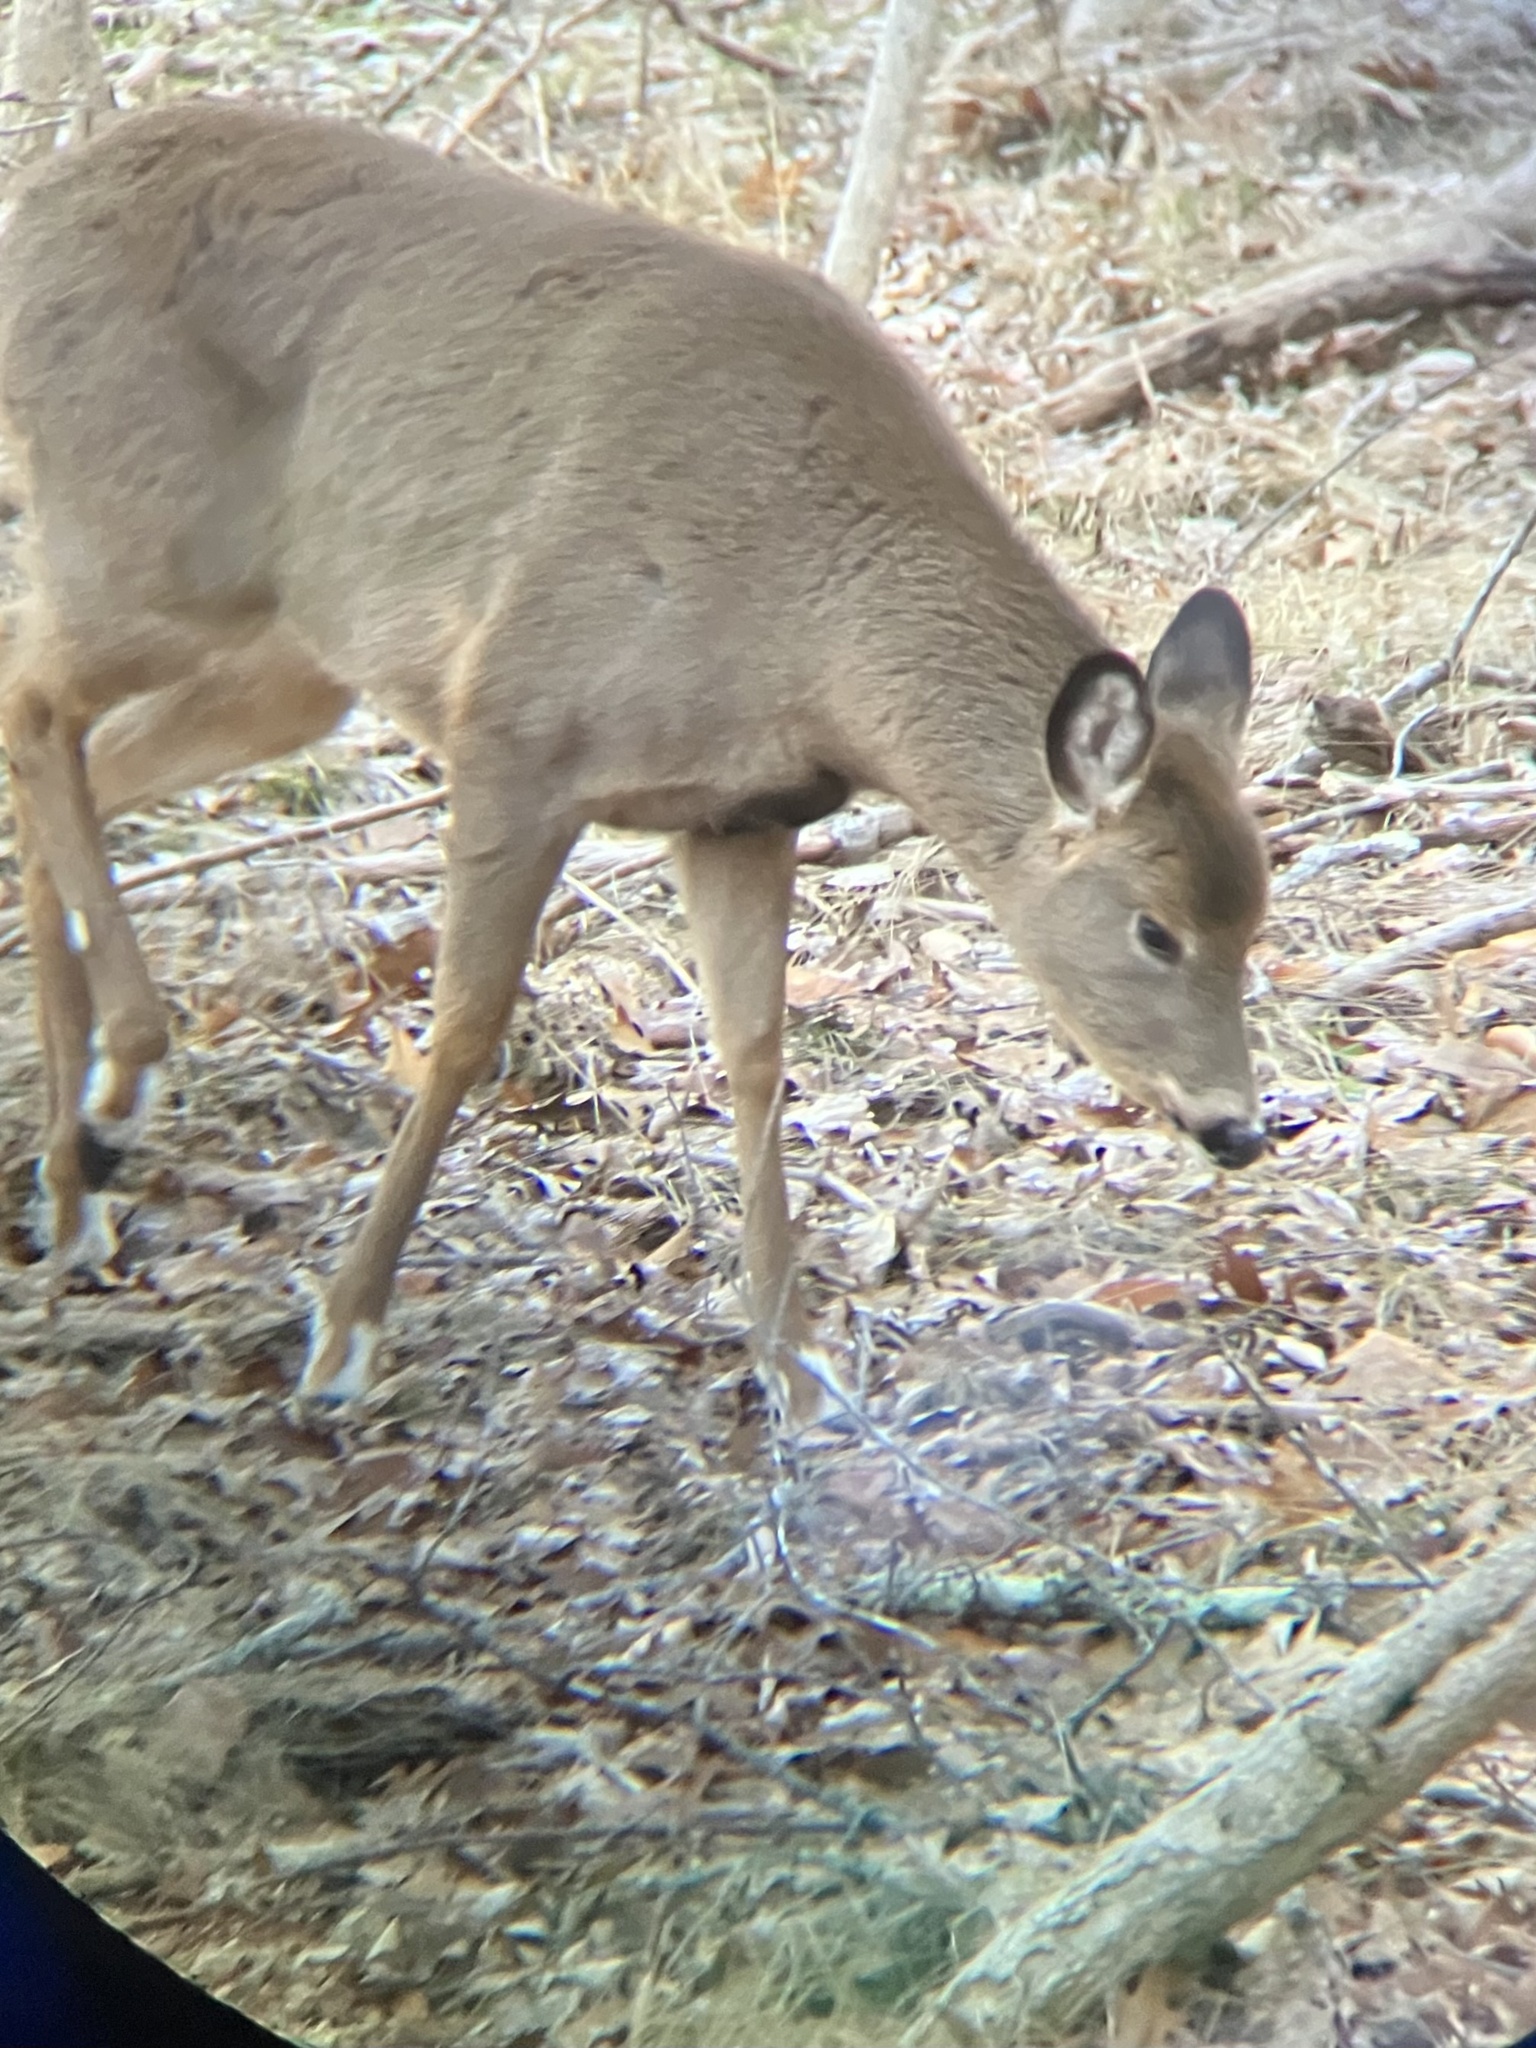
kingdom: Animalia
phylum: Chordata
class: Mammalia
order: Artiodactyla
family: Cervidae
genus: Odocoileus
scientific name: Odocoileus virginianus
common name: White-tailed deer
